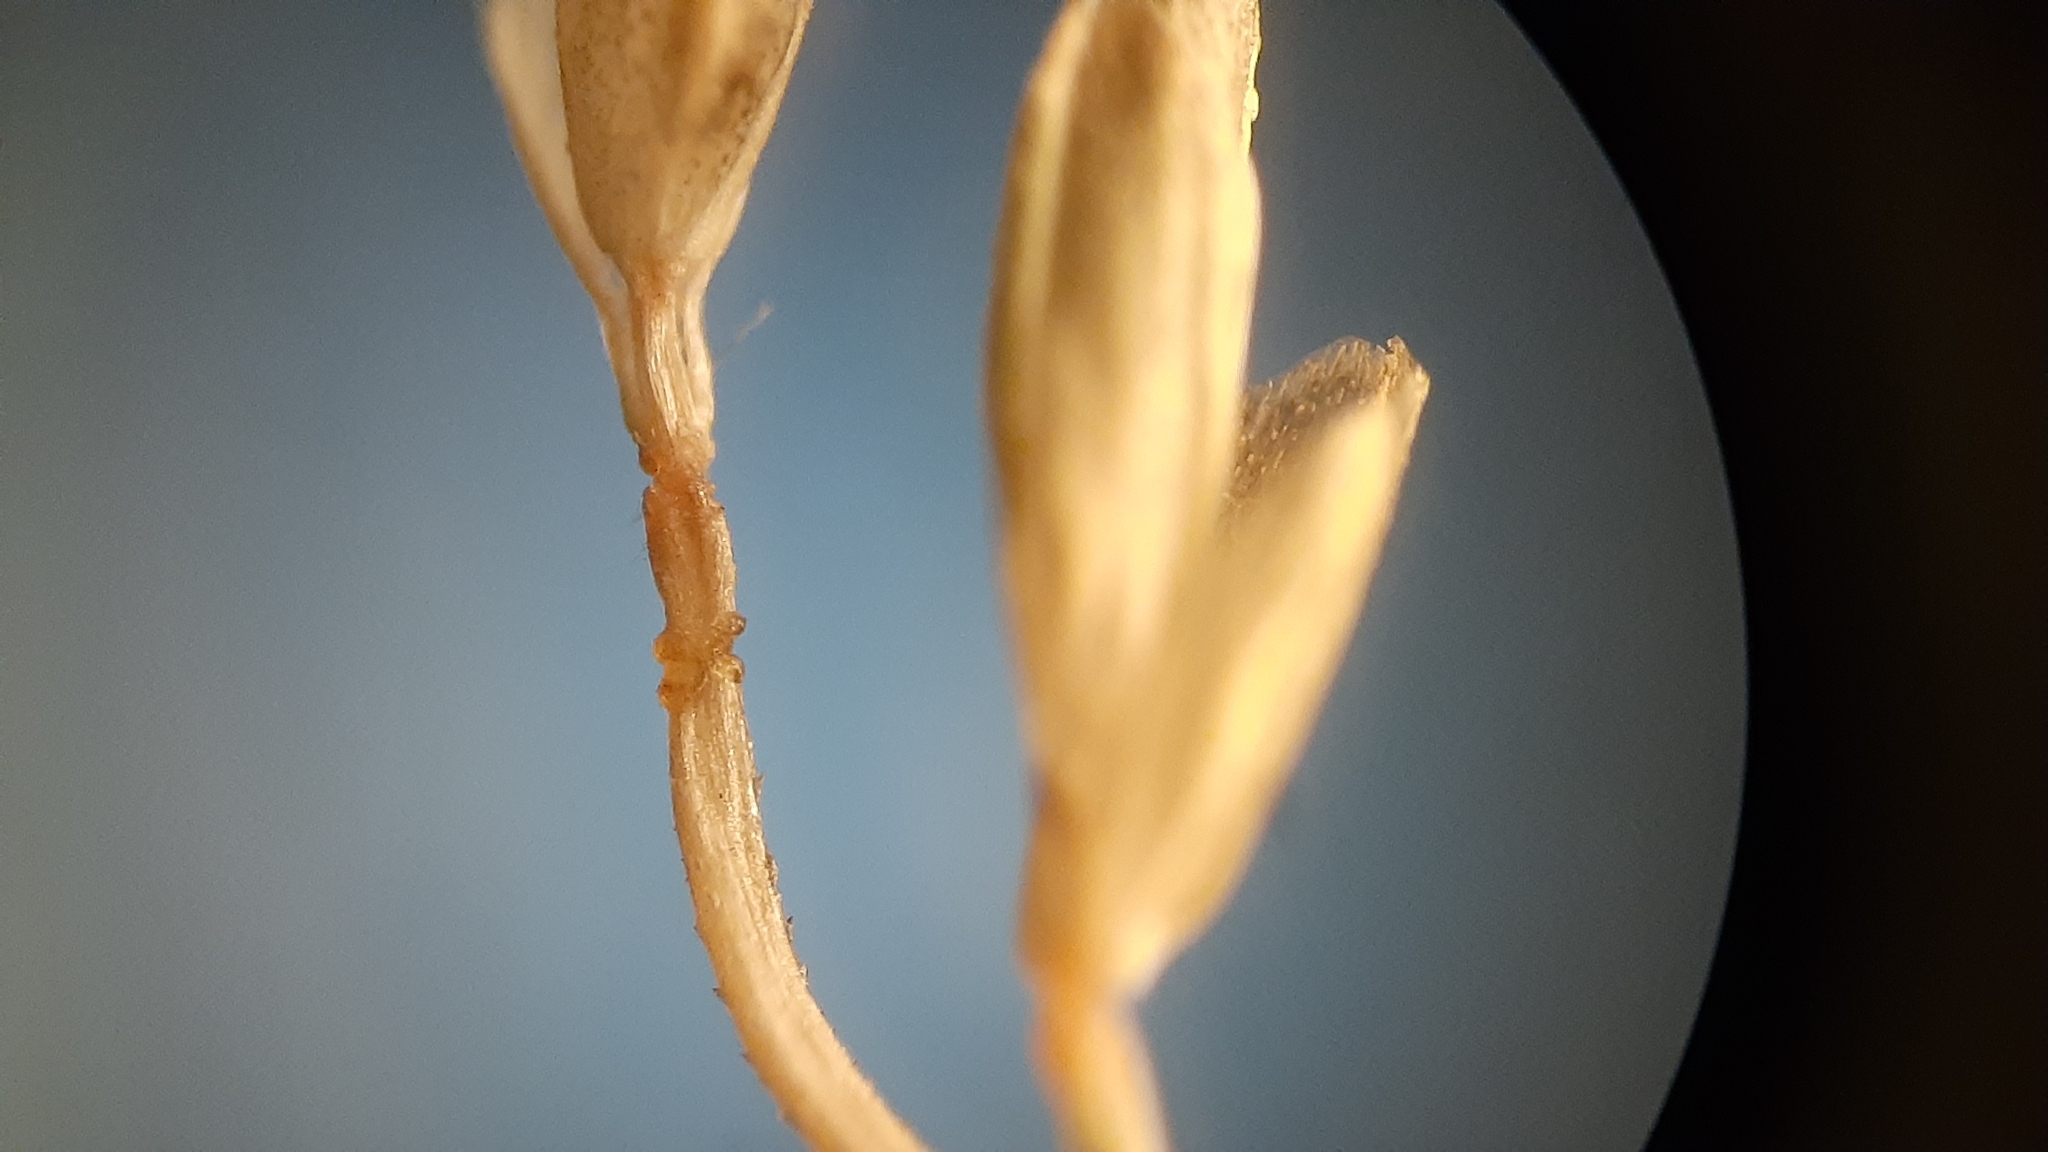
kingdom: Plantae
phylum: Tracheophyta
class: Liliopsida
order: Poales
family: Poaceae
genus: Eragrostis
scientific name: Eragrostis minor
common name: Small love-grass
